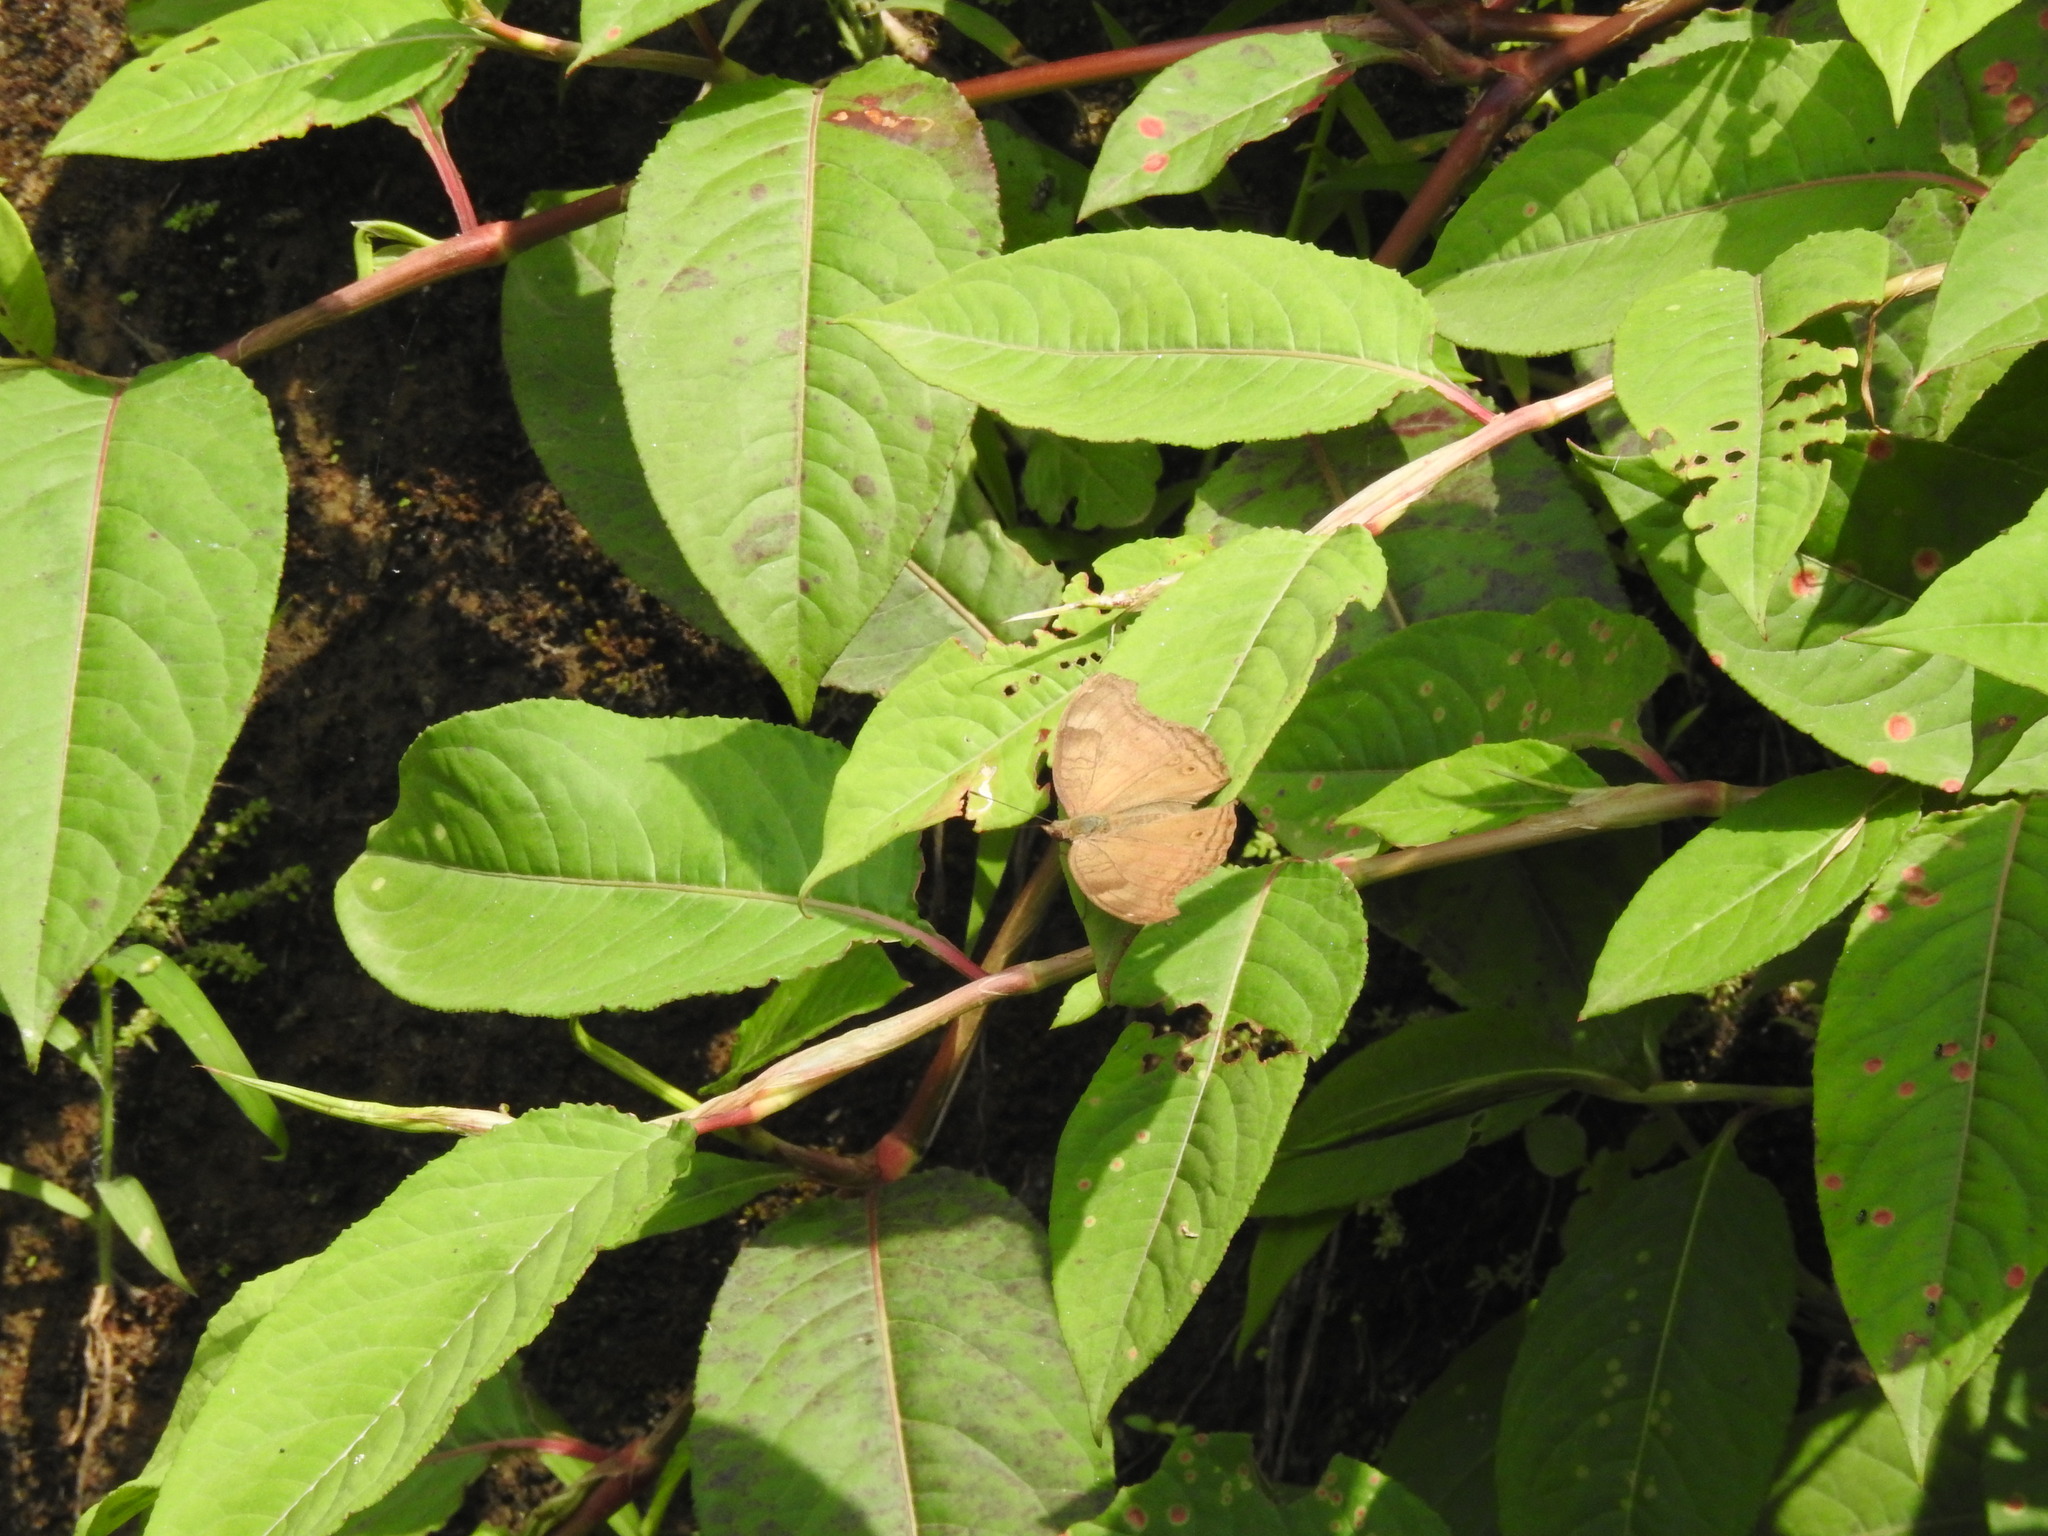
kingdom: Animalia
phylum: Arthropoda
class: Insecta
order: Lepidoptera
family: Nymphalidae
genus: Junonia
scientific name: Junonia iphita
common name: Chocolate pansy
